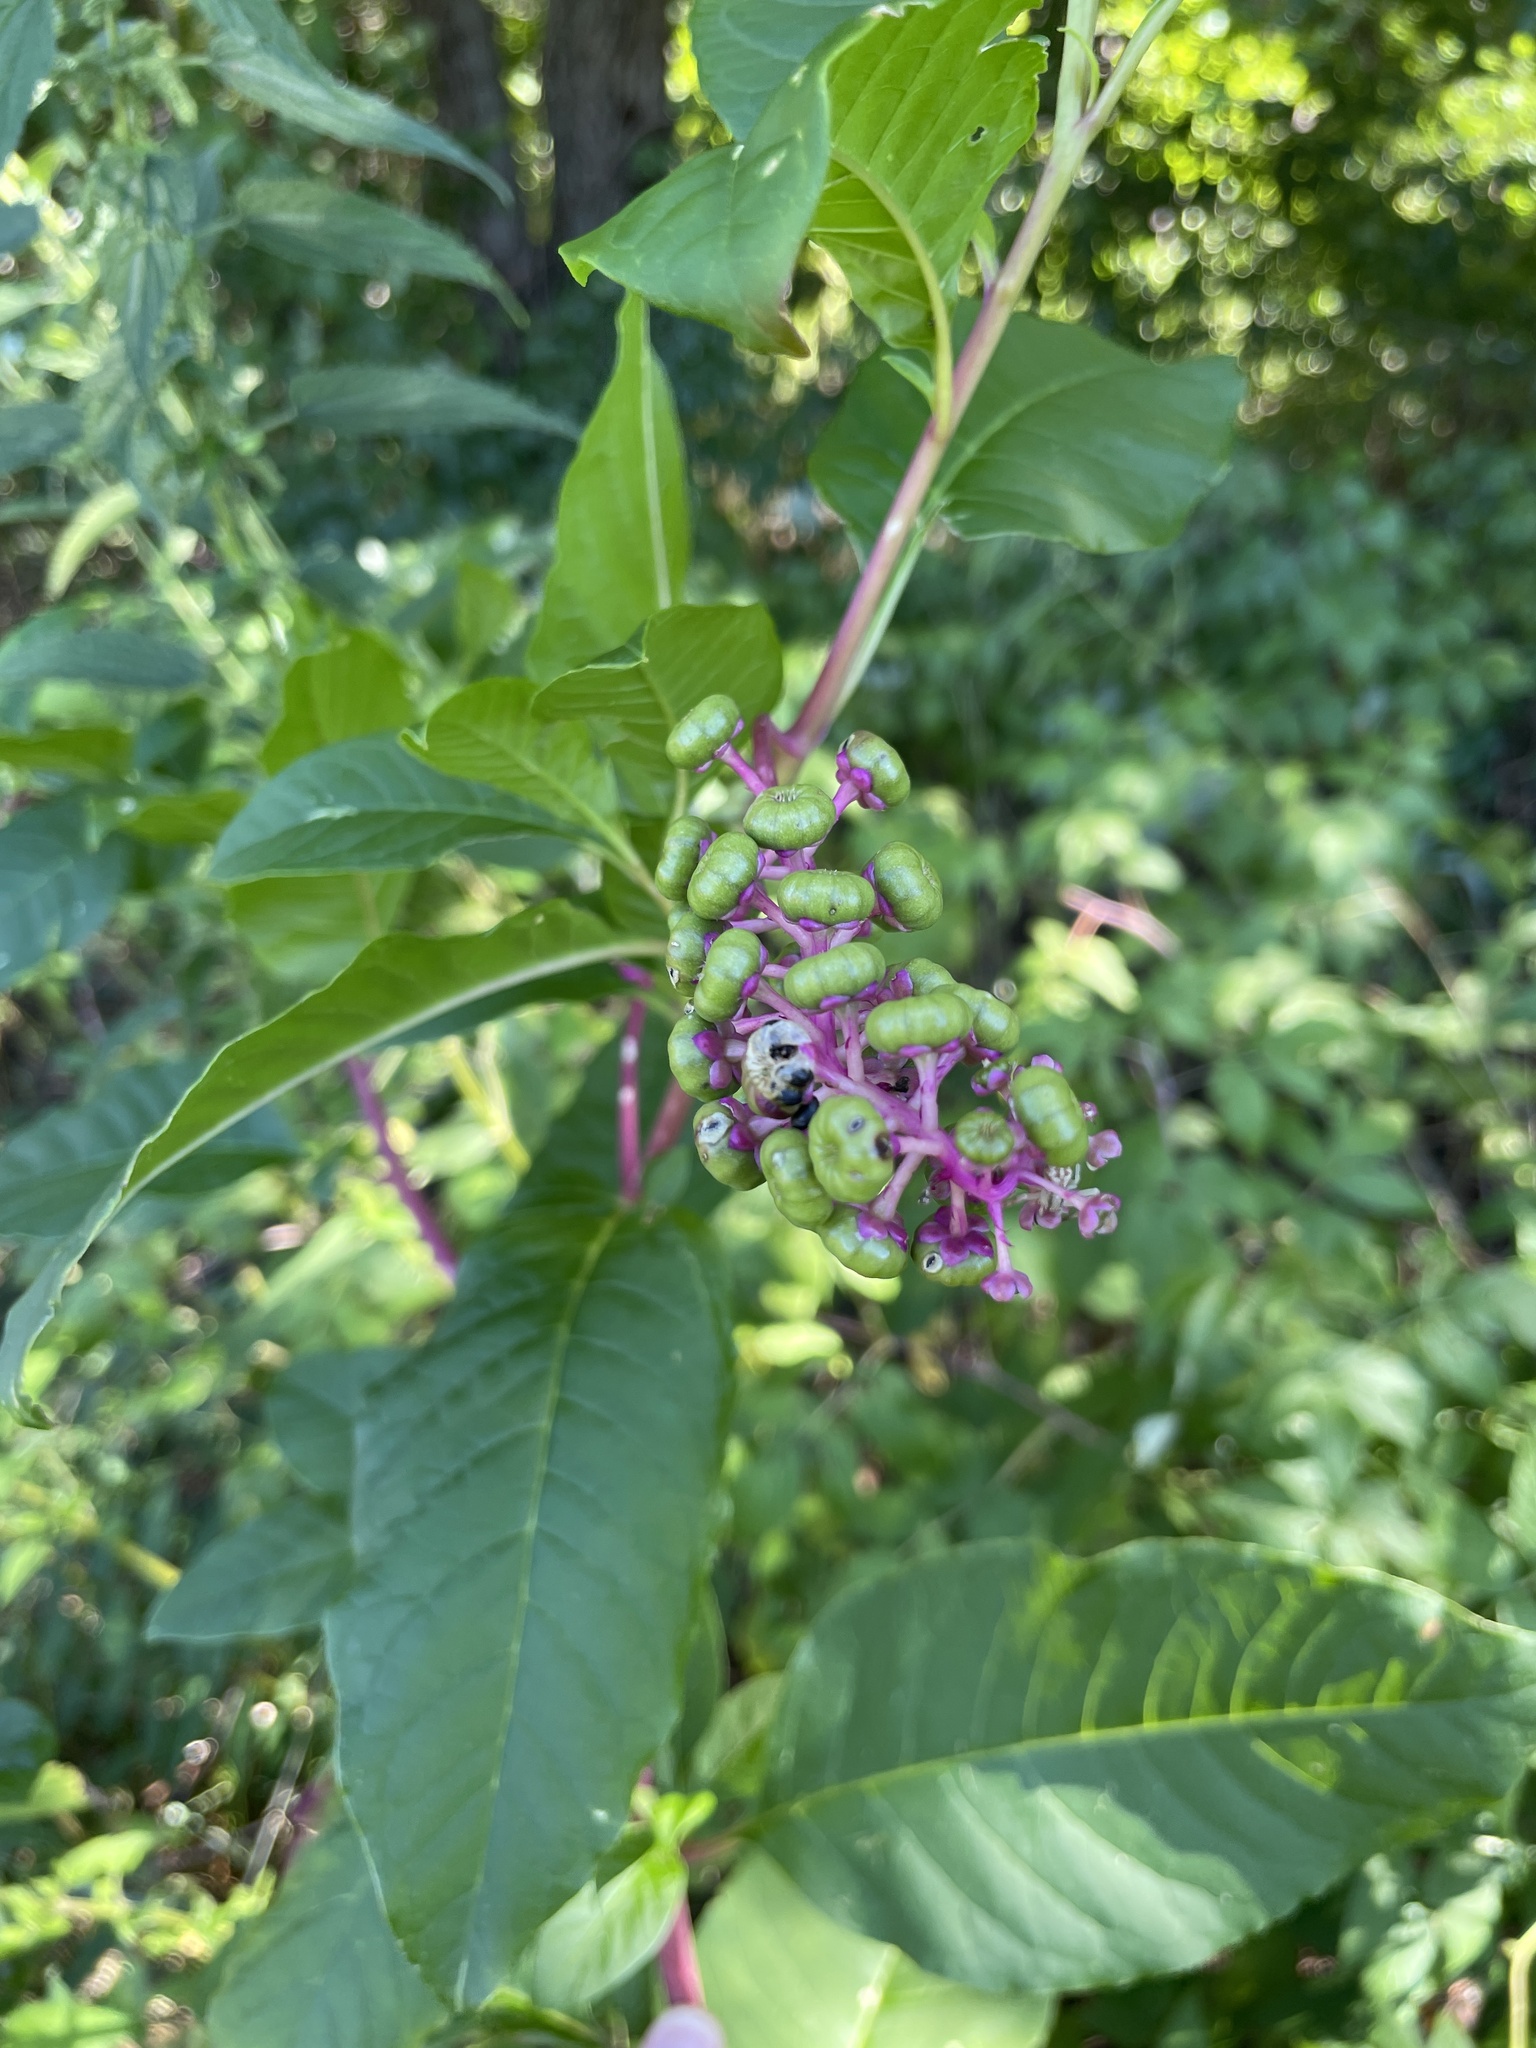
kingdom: Plantae
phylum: Tracheophyta
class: Magnoliopsida
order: Caryophyllales
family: Phytolaccaceae
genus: Phytolacca
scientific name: Phytolacca americana
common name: American pokeweed
